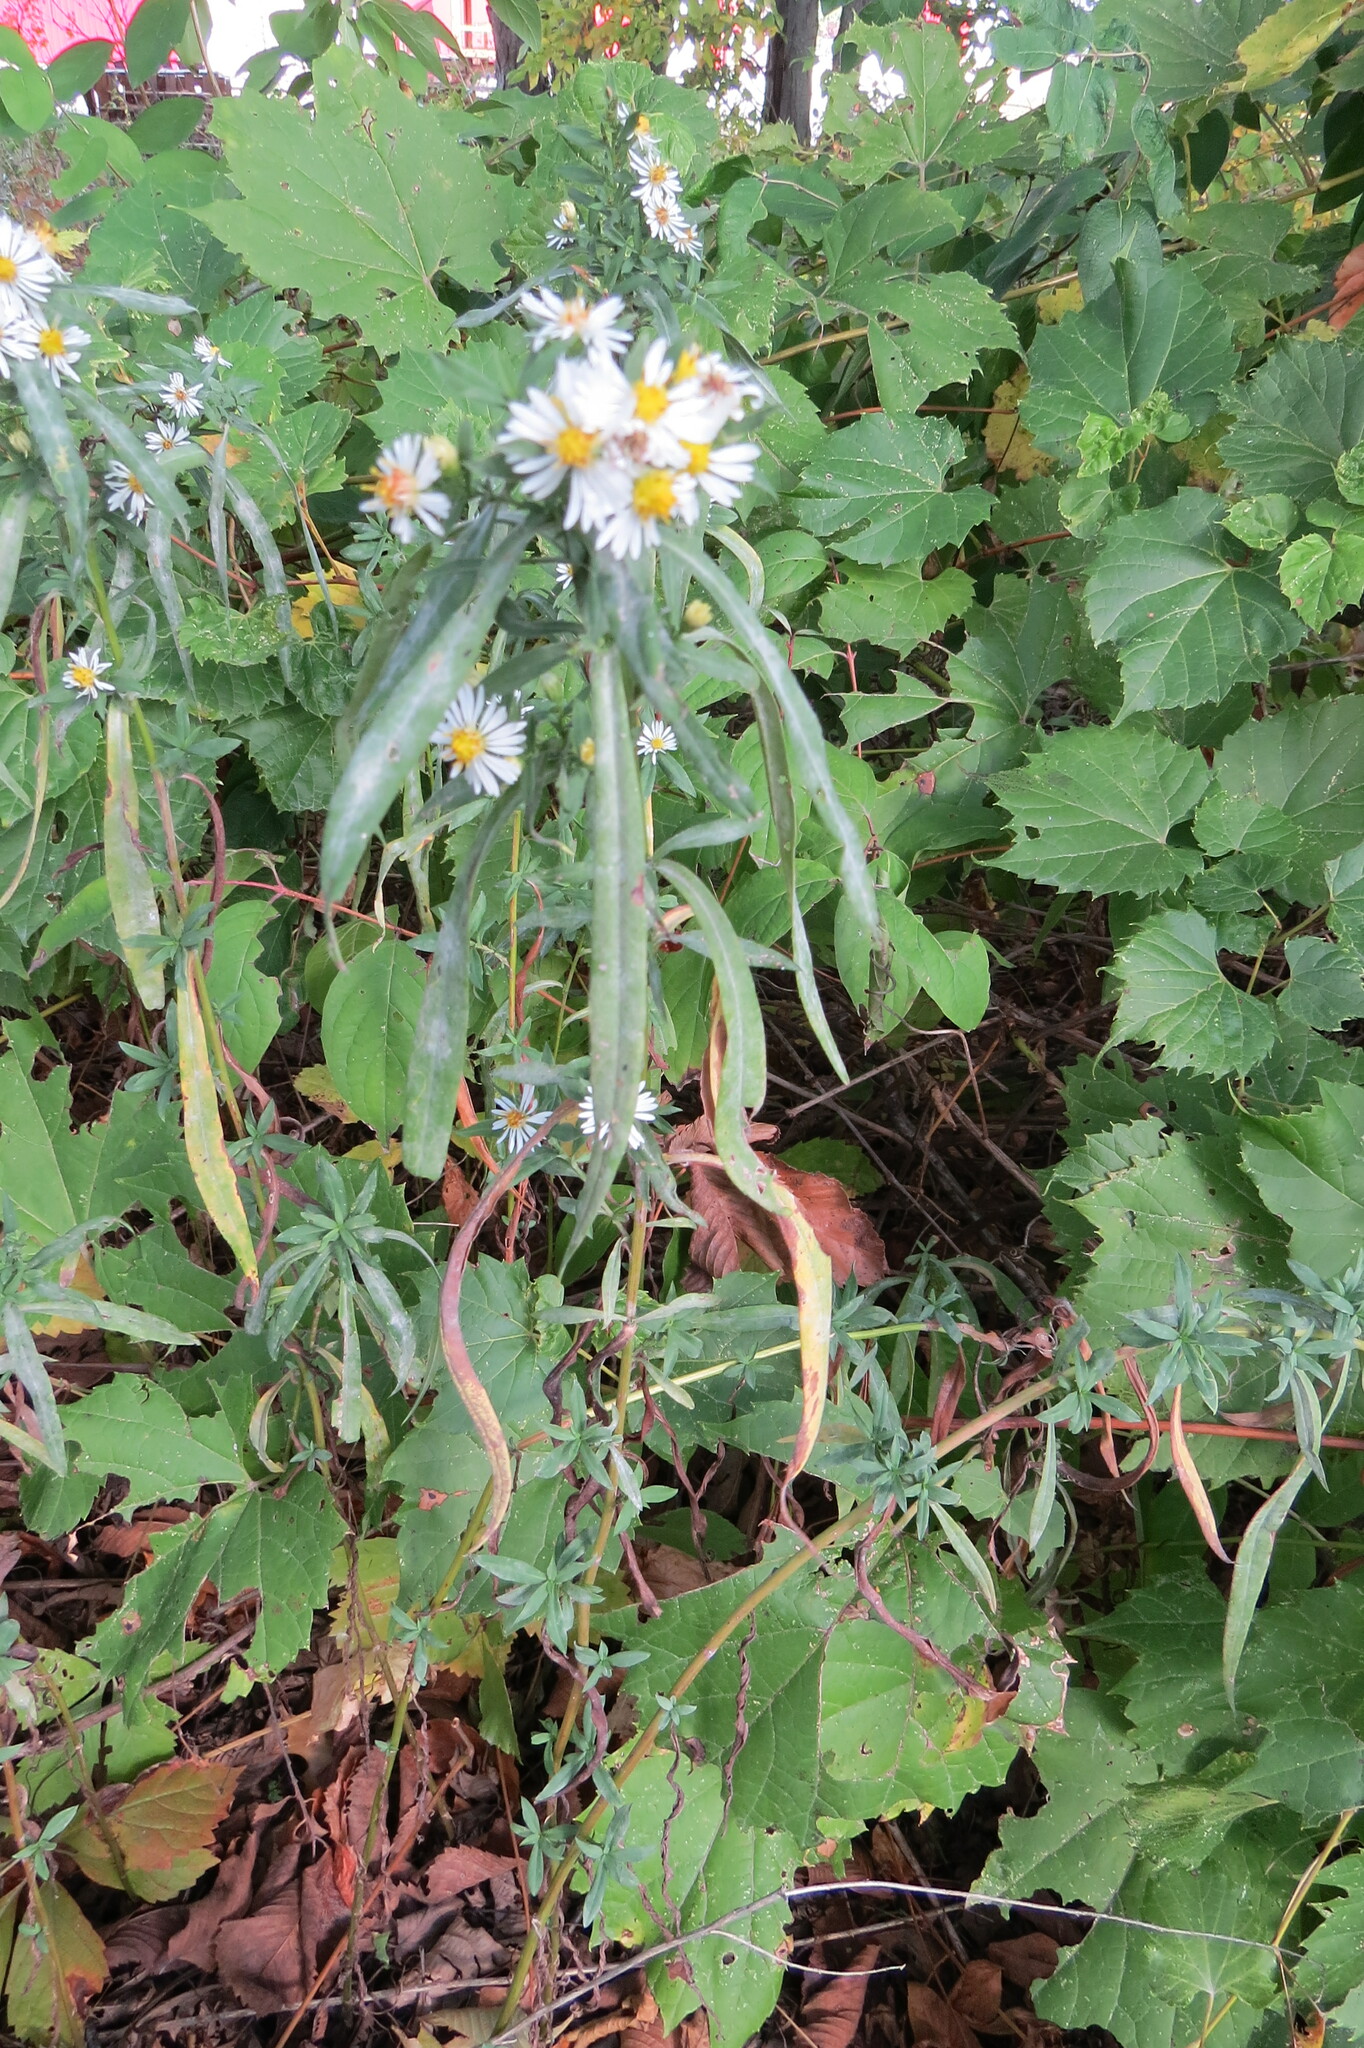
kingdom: Plantae
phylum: Tracheophyta
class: Magnoliopsida
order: Asterales
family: Asteraceae
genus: Symphyotrichum
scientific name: Symphyotrichum lanceolatum
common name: Panicled aster
